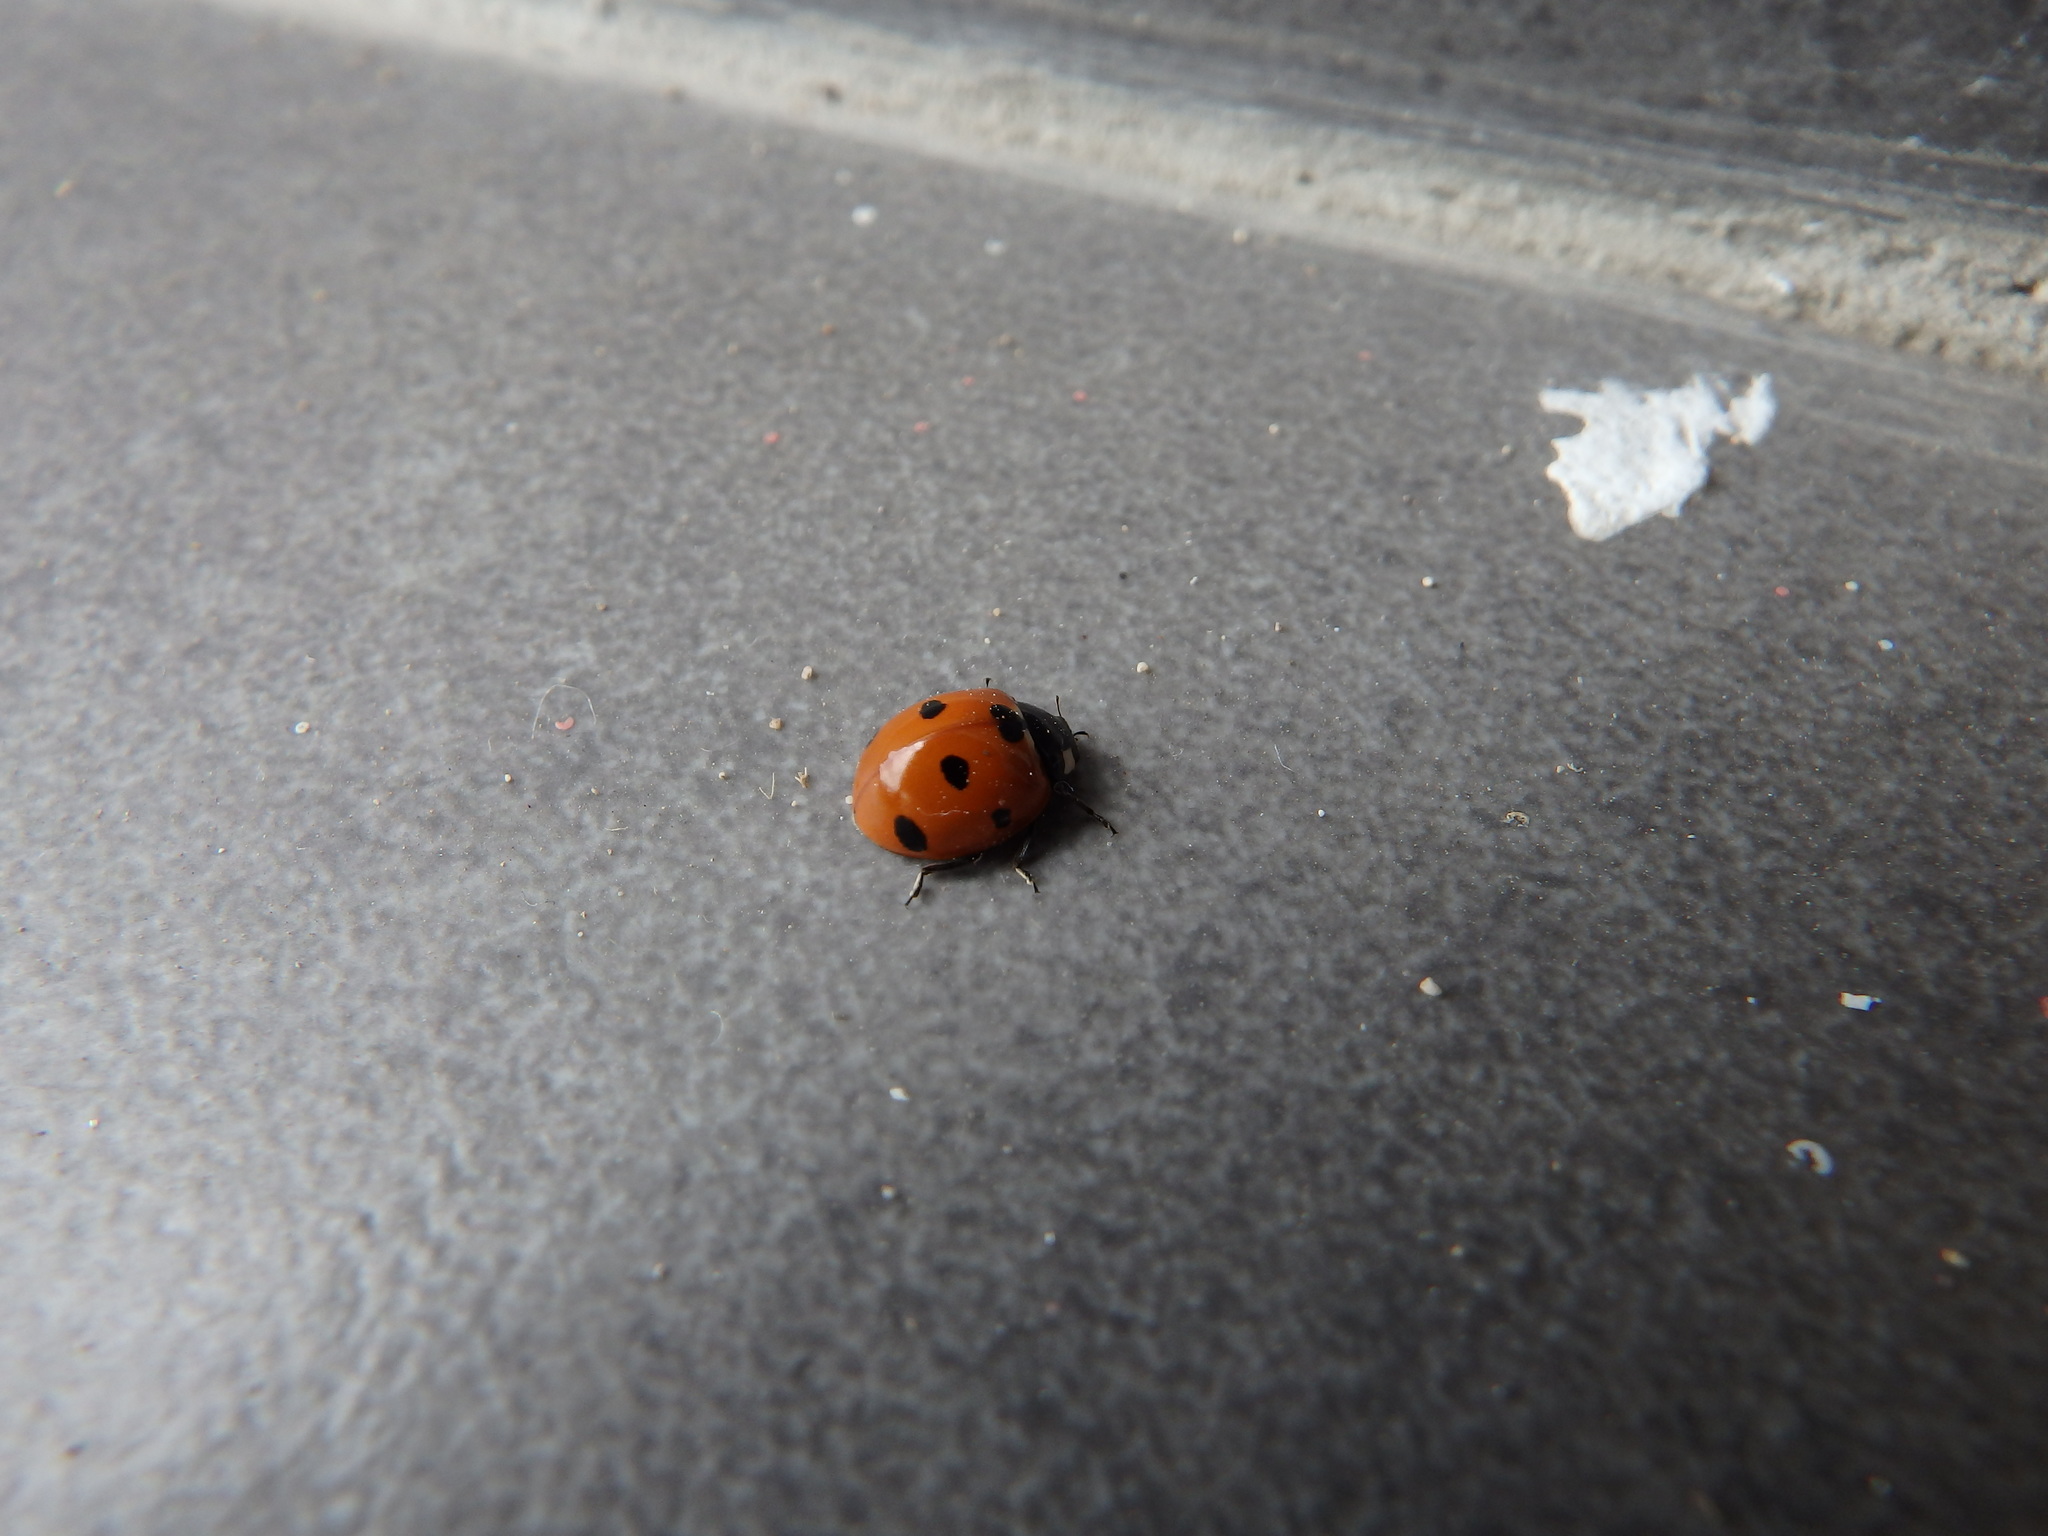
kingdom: Animalia
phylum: Arthropoda
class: Insecta
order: Coleoptera
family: Coccinellidae
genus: Coccinella
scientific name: Coccinella algerica
